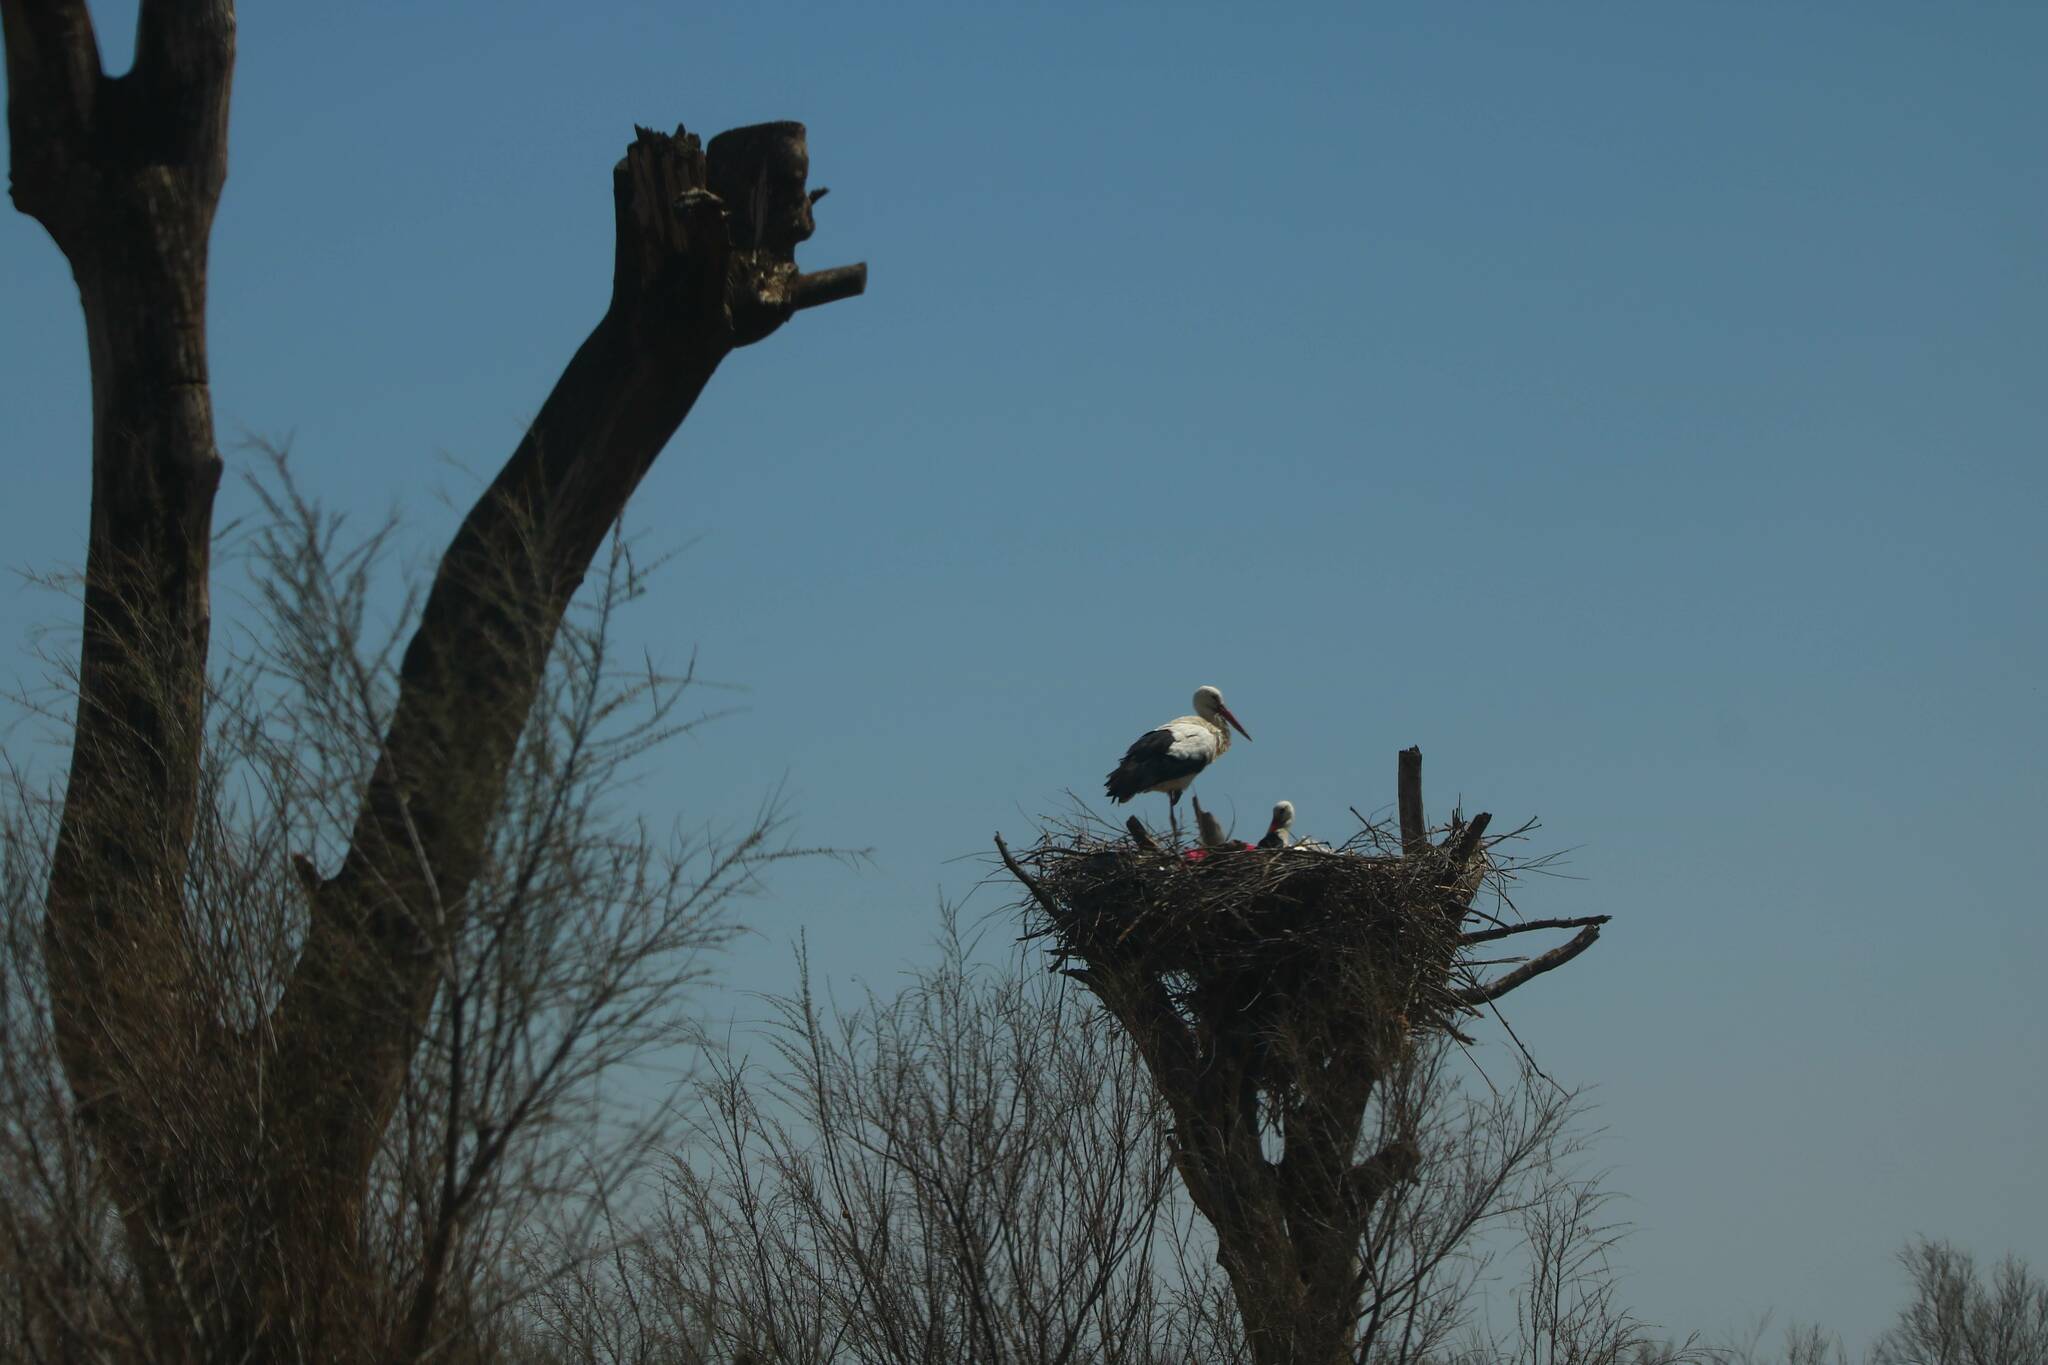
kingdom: Animalia
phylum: Chordata
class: Aves
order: Ciconiiformes
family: Ciconiidae
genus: Ciconia
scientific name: Ciconia ciconia
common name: White stork
